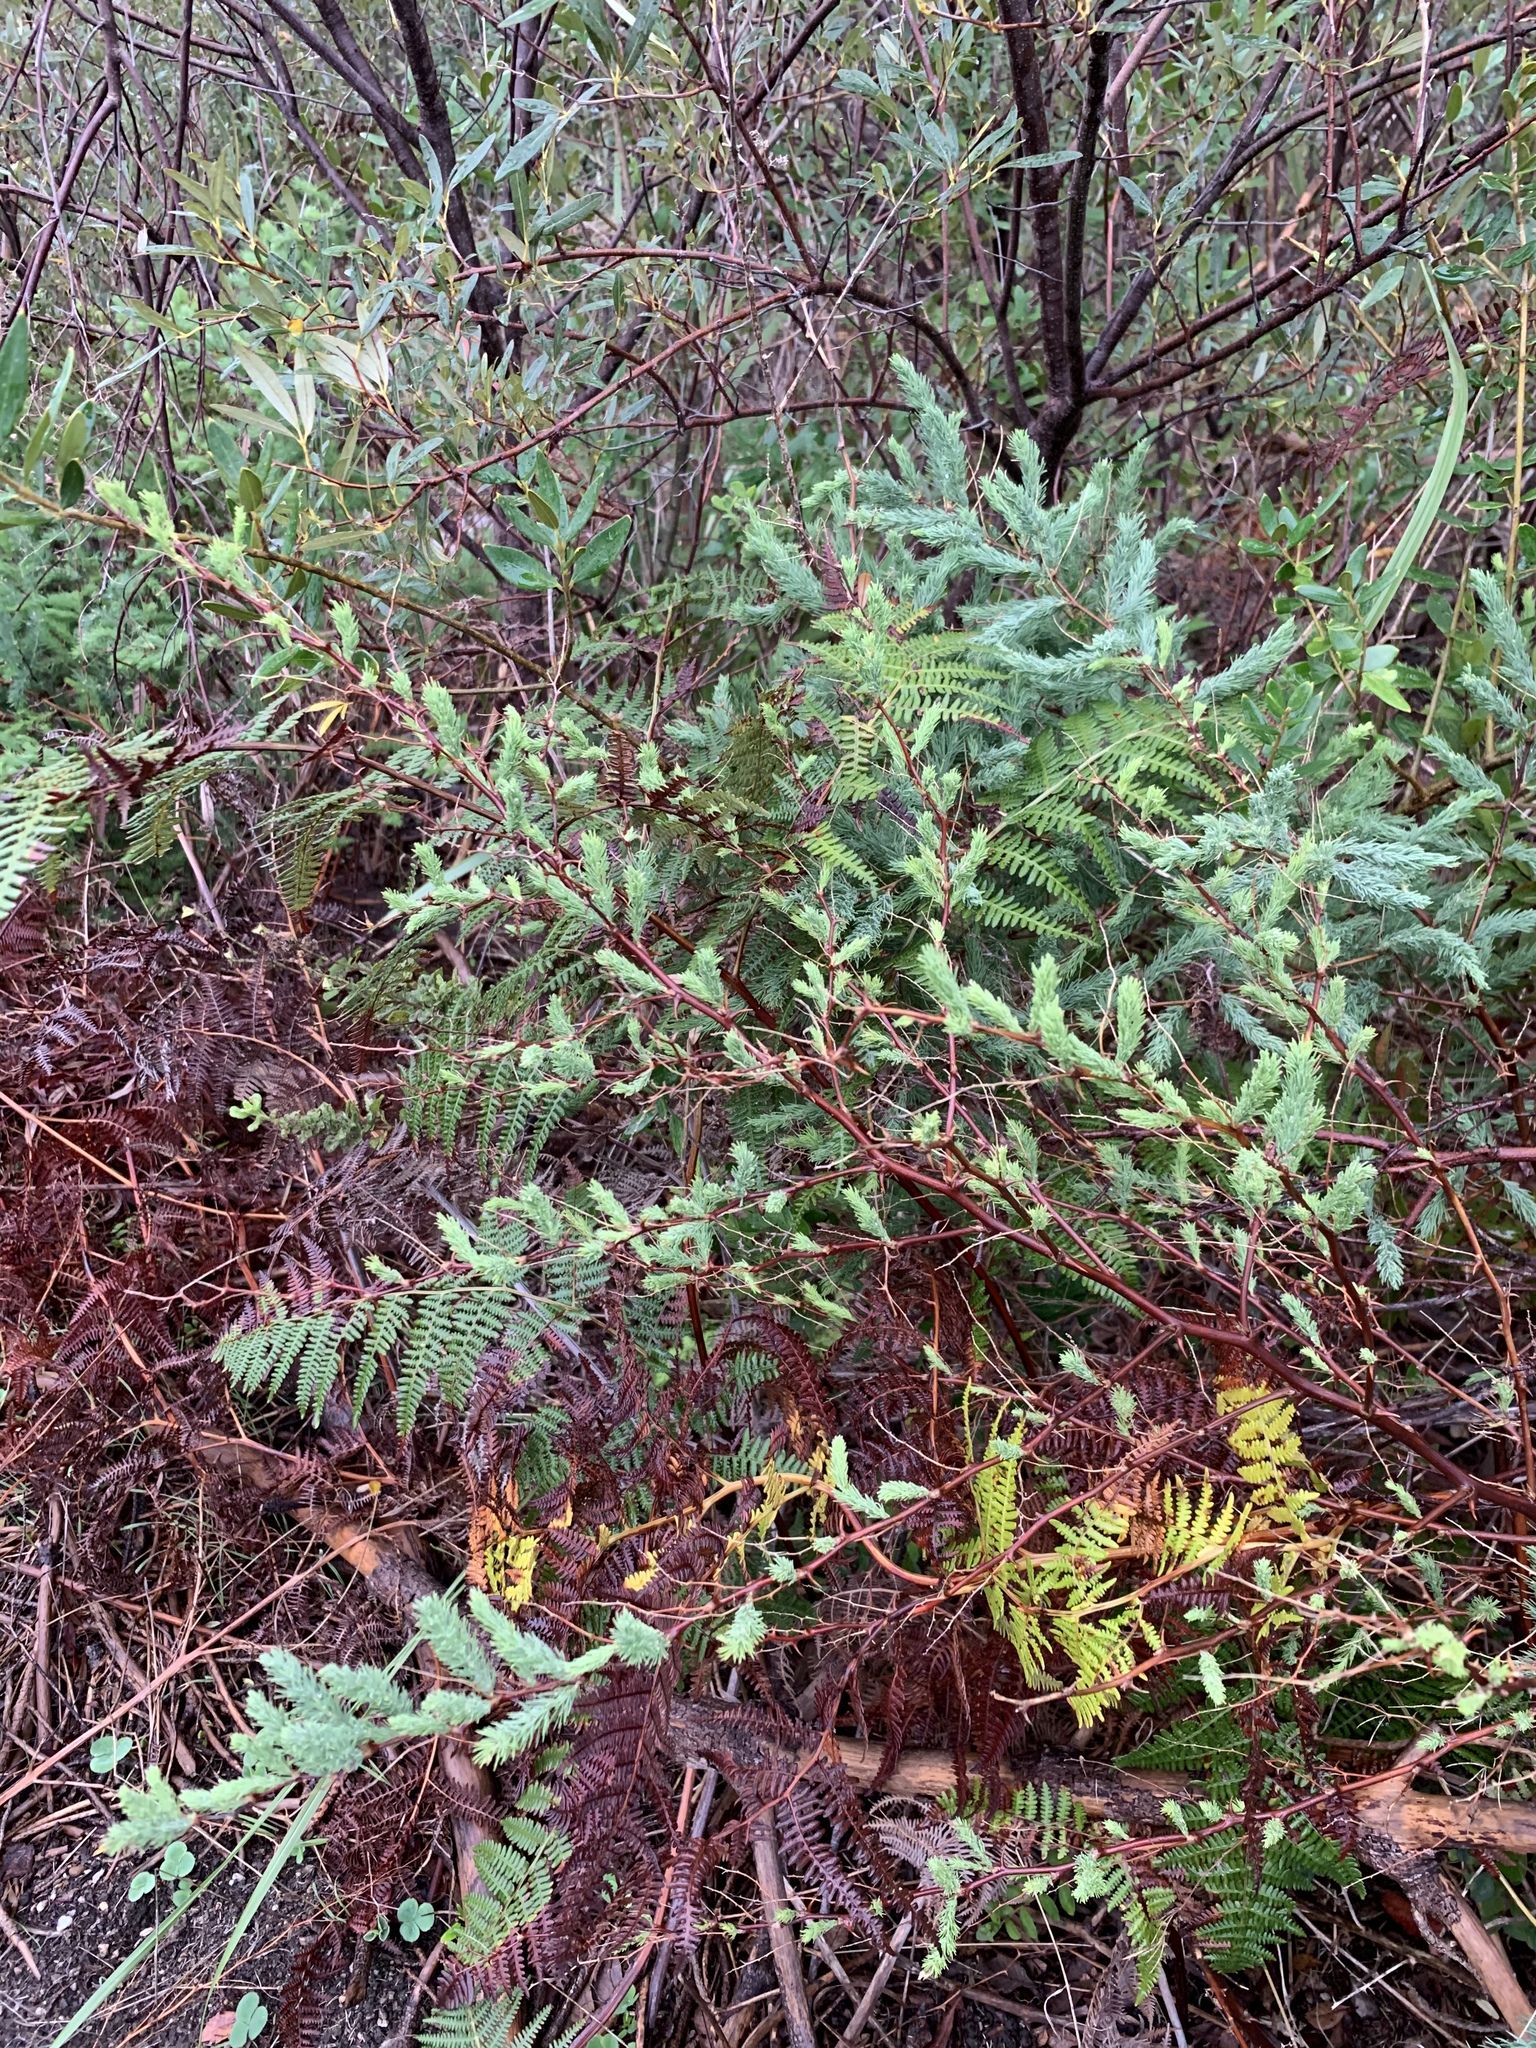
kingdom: Plantae
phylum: Tracheophyta
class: Liliopsida
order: Asparagales
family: Asparagaceae
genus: Asparagus
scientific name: Asparagus rubicundus
